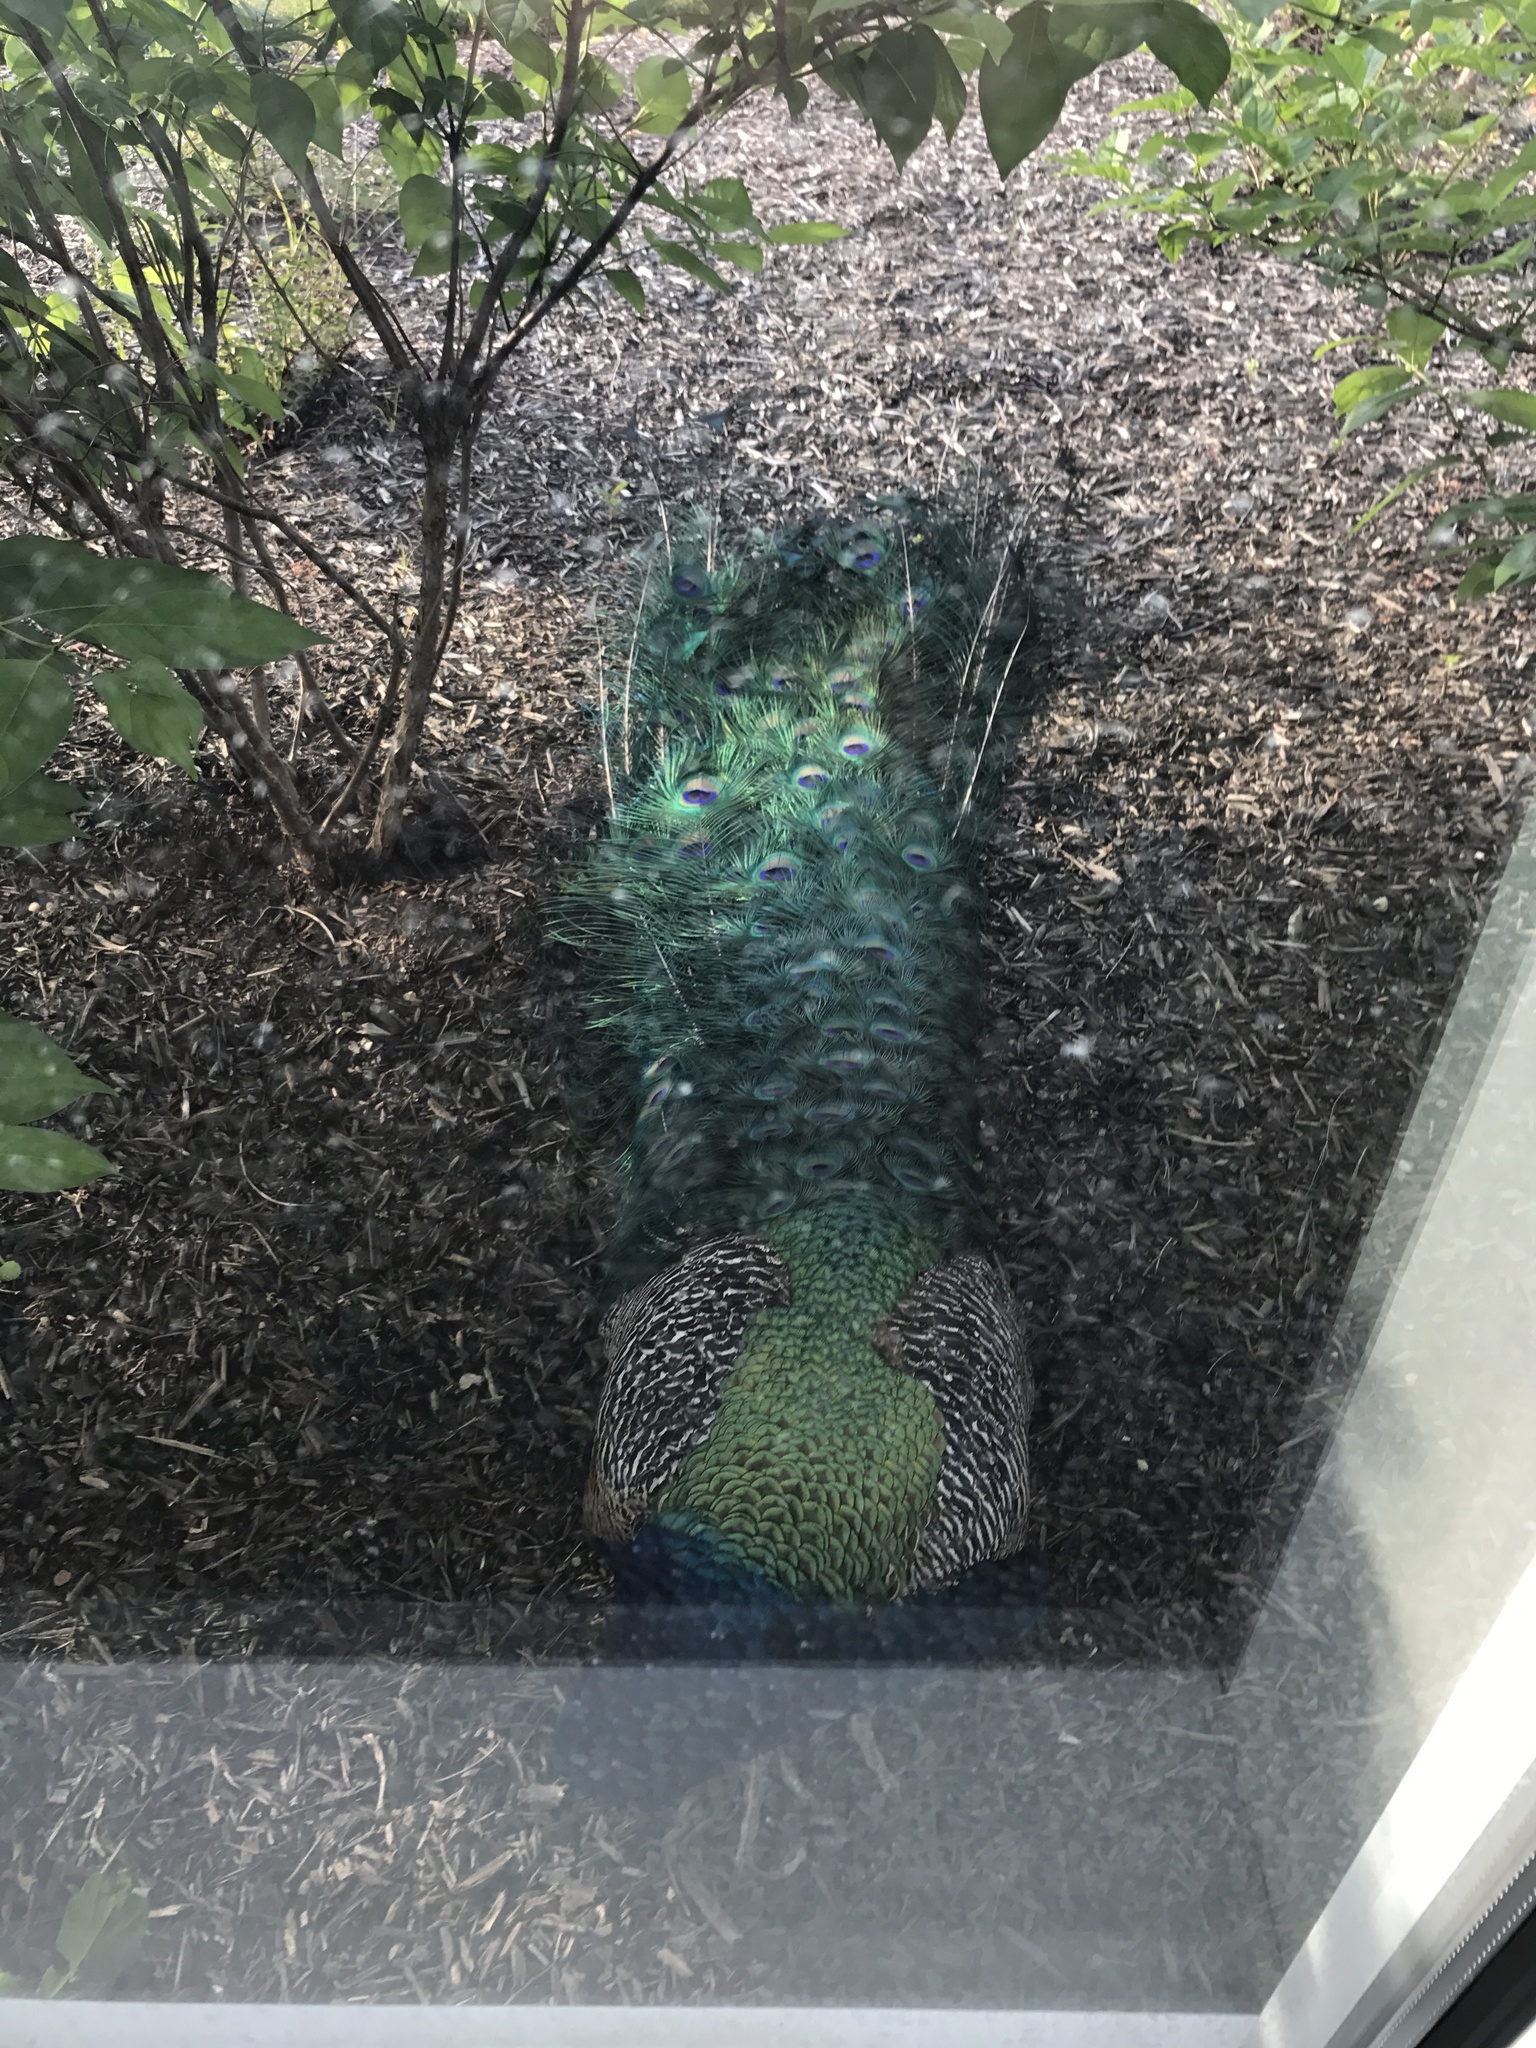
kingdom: Animalia
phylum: Chordata
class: Aves
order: Galliformes
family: Phasianidae
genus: Pavo
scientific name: Pavo cristatus
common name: Indian peafowl
